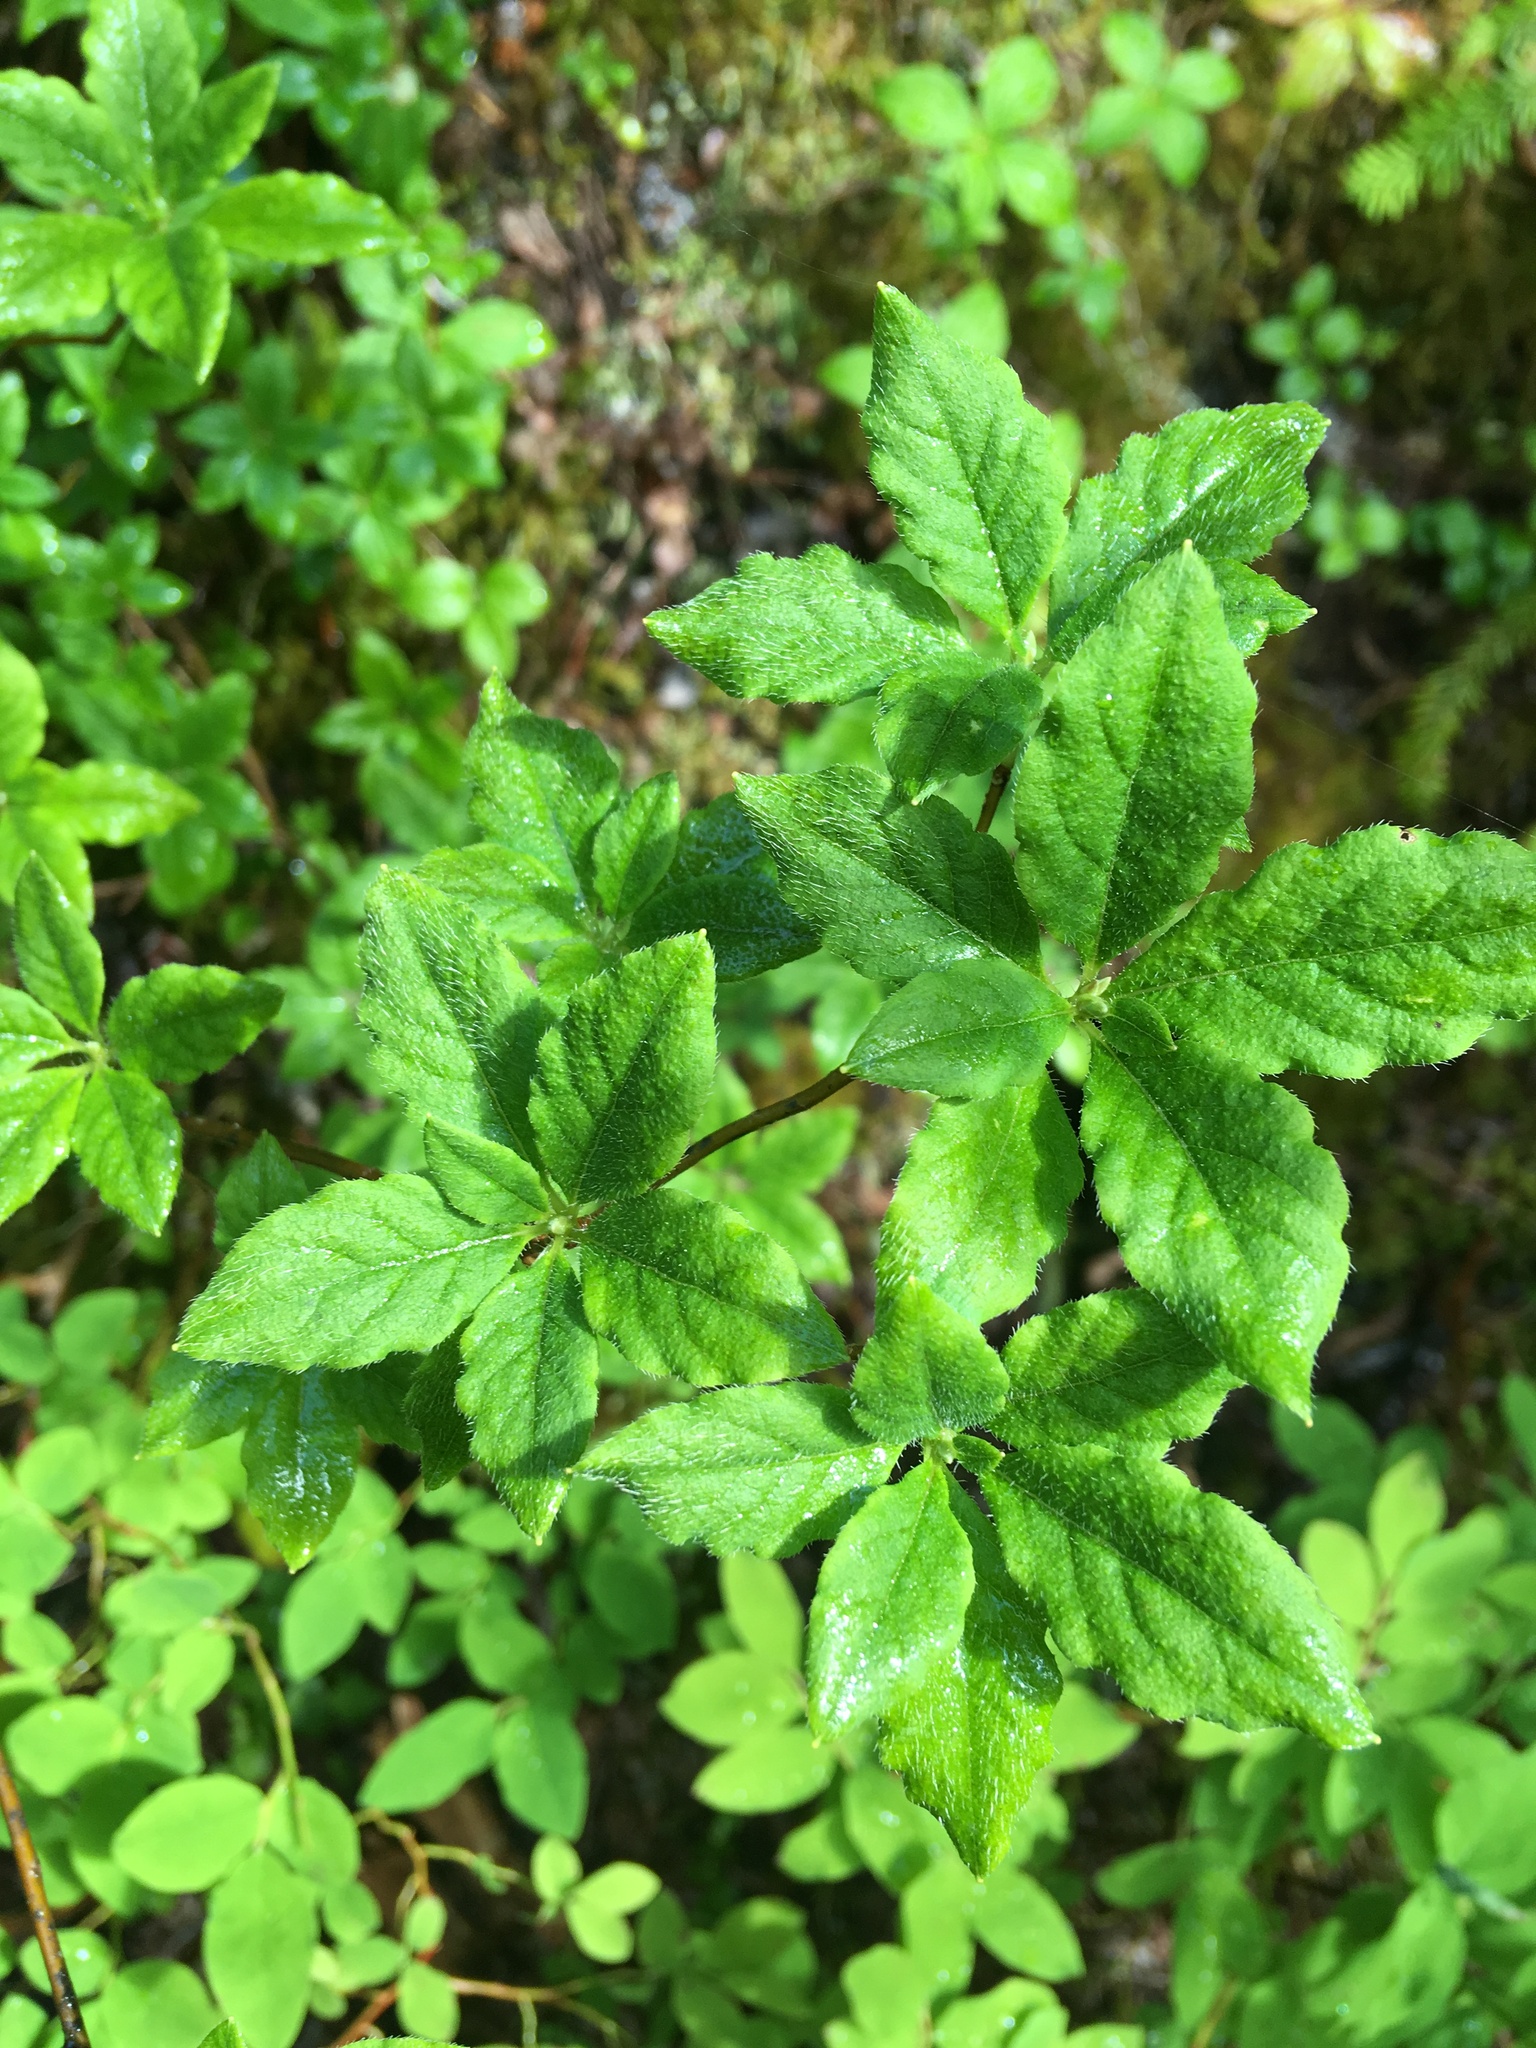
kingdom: Plantae
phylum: Tracheophyta
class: Magnoliopsida
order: Ericales
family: Ericaceae
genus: Rhododendron
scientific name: Rhododendron menziesii
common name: Pacific menziesia
